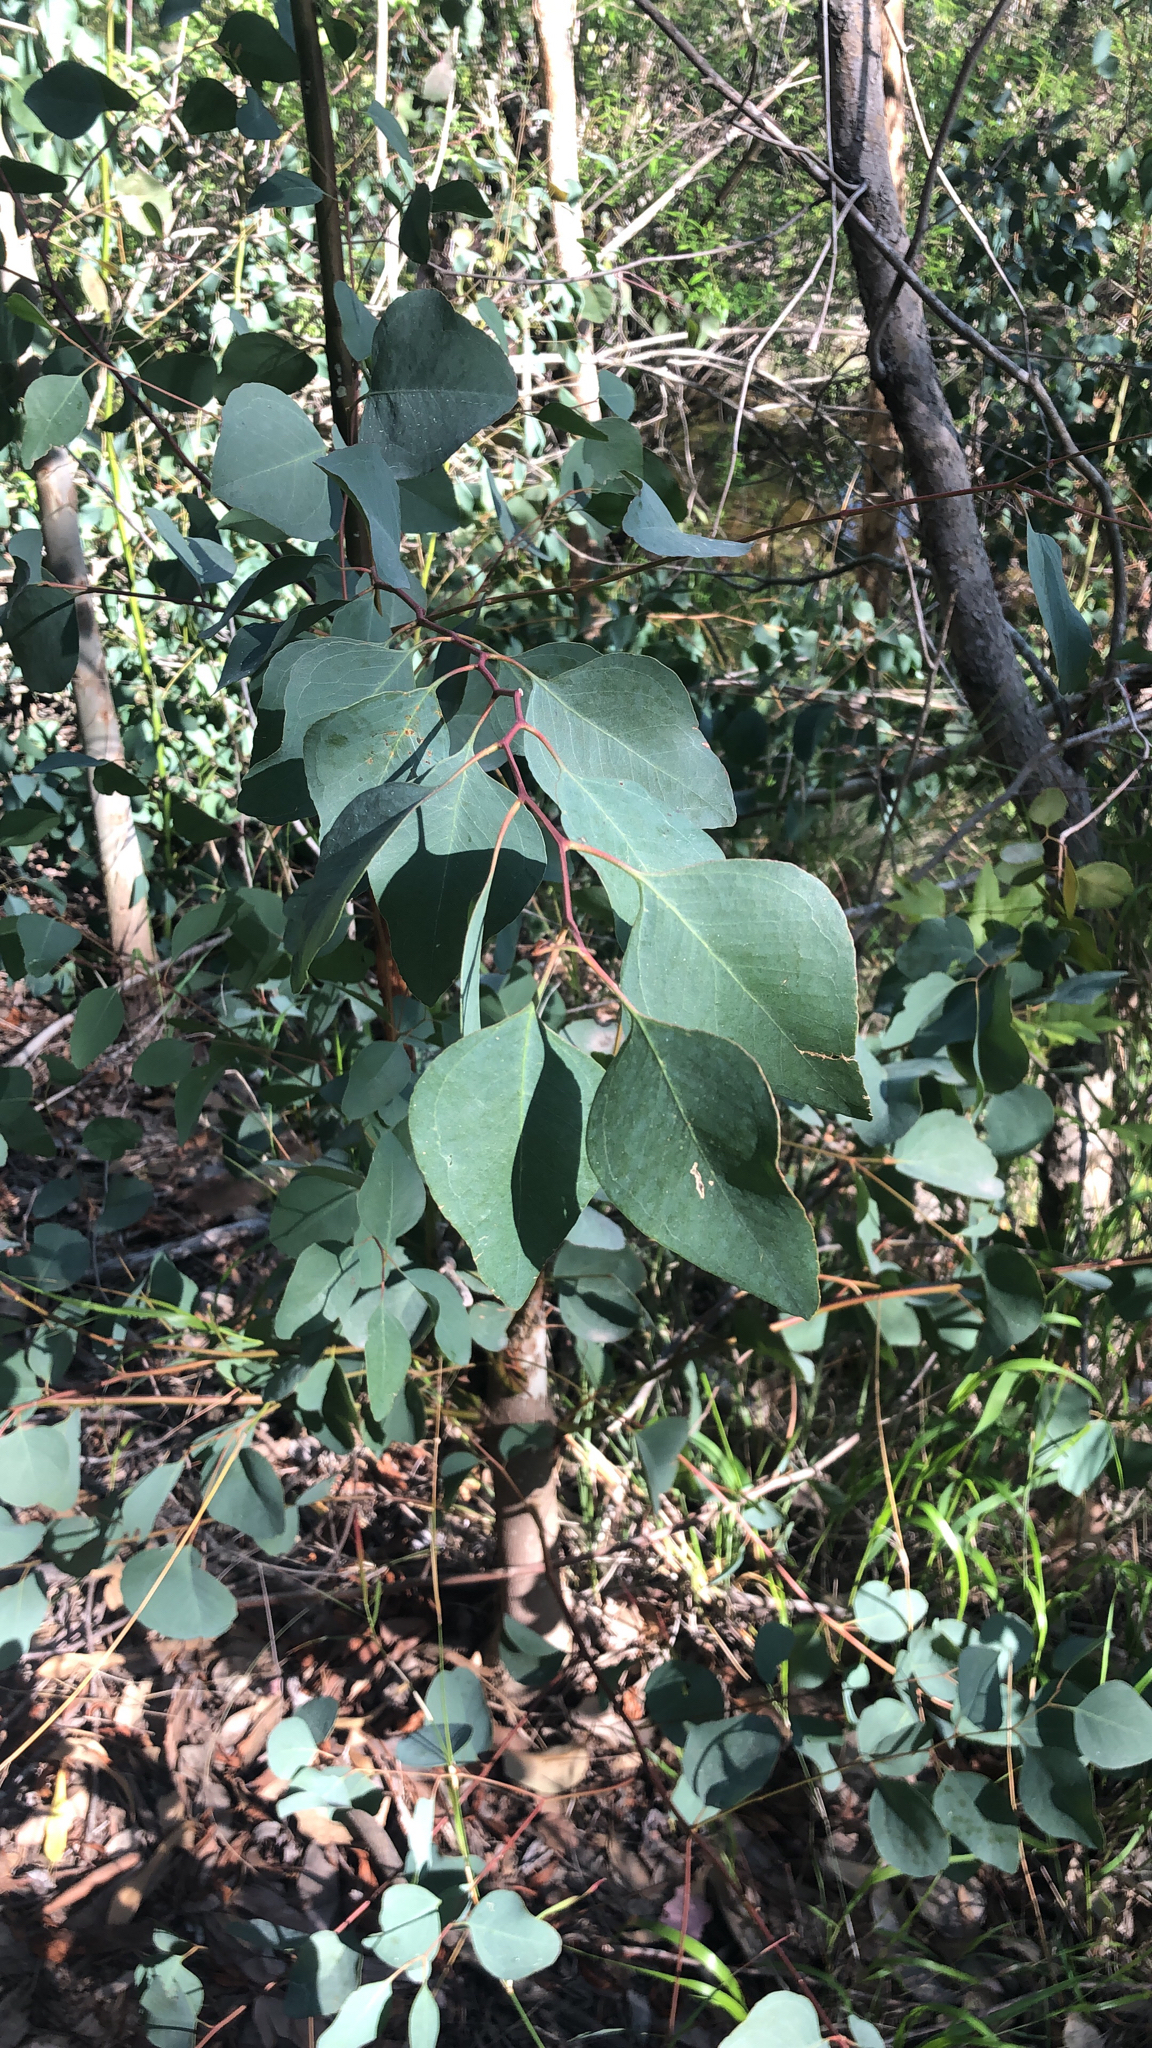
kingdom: Plantae
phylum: Tracheophyta
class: Magnoliopsida
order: Myrtales
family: Myrtaceae
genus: Eucalyptus
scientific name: Eucalyptus polyanthemos
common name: Red-box
